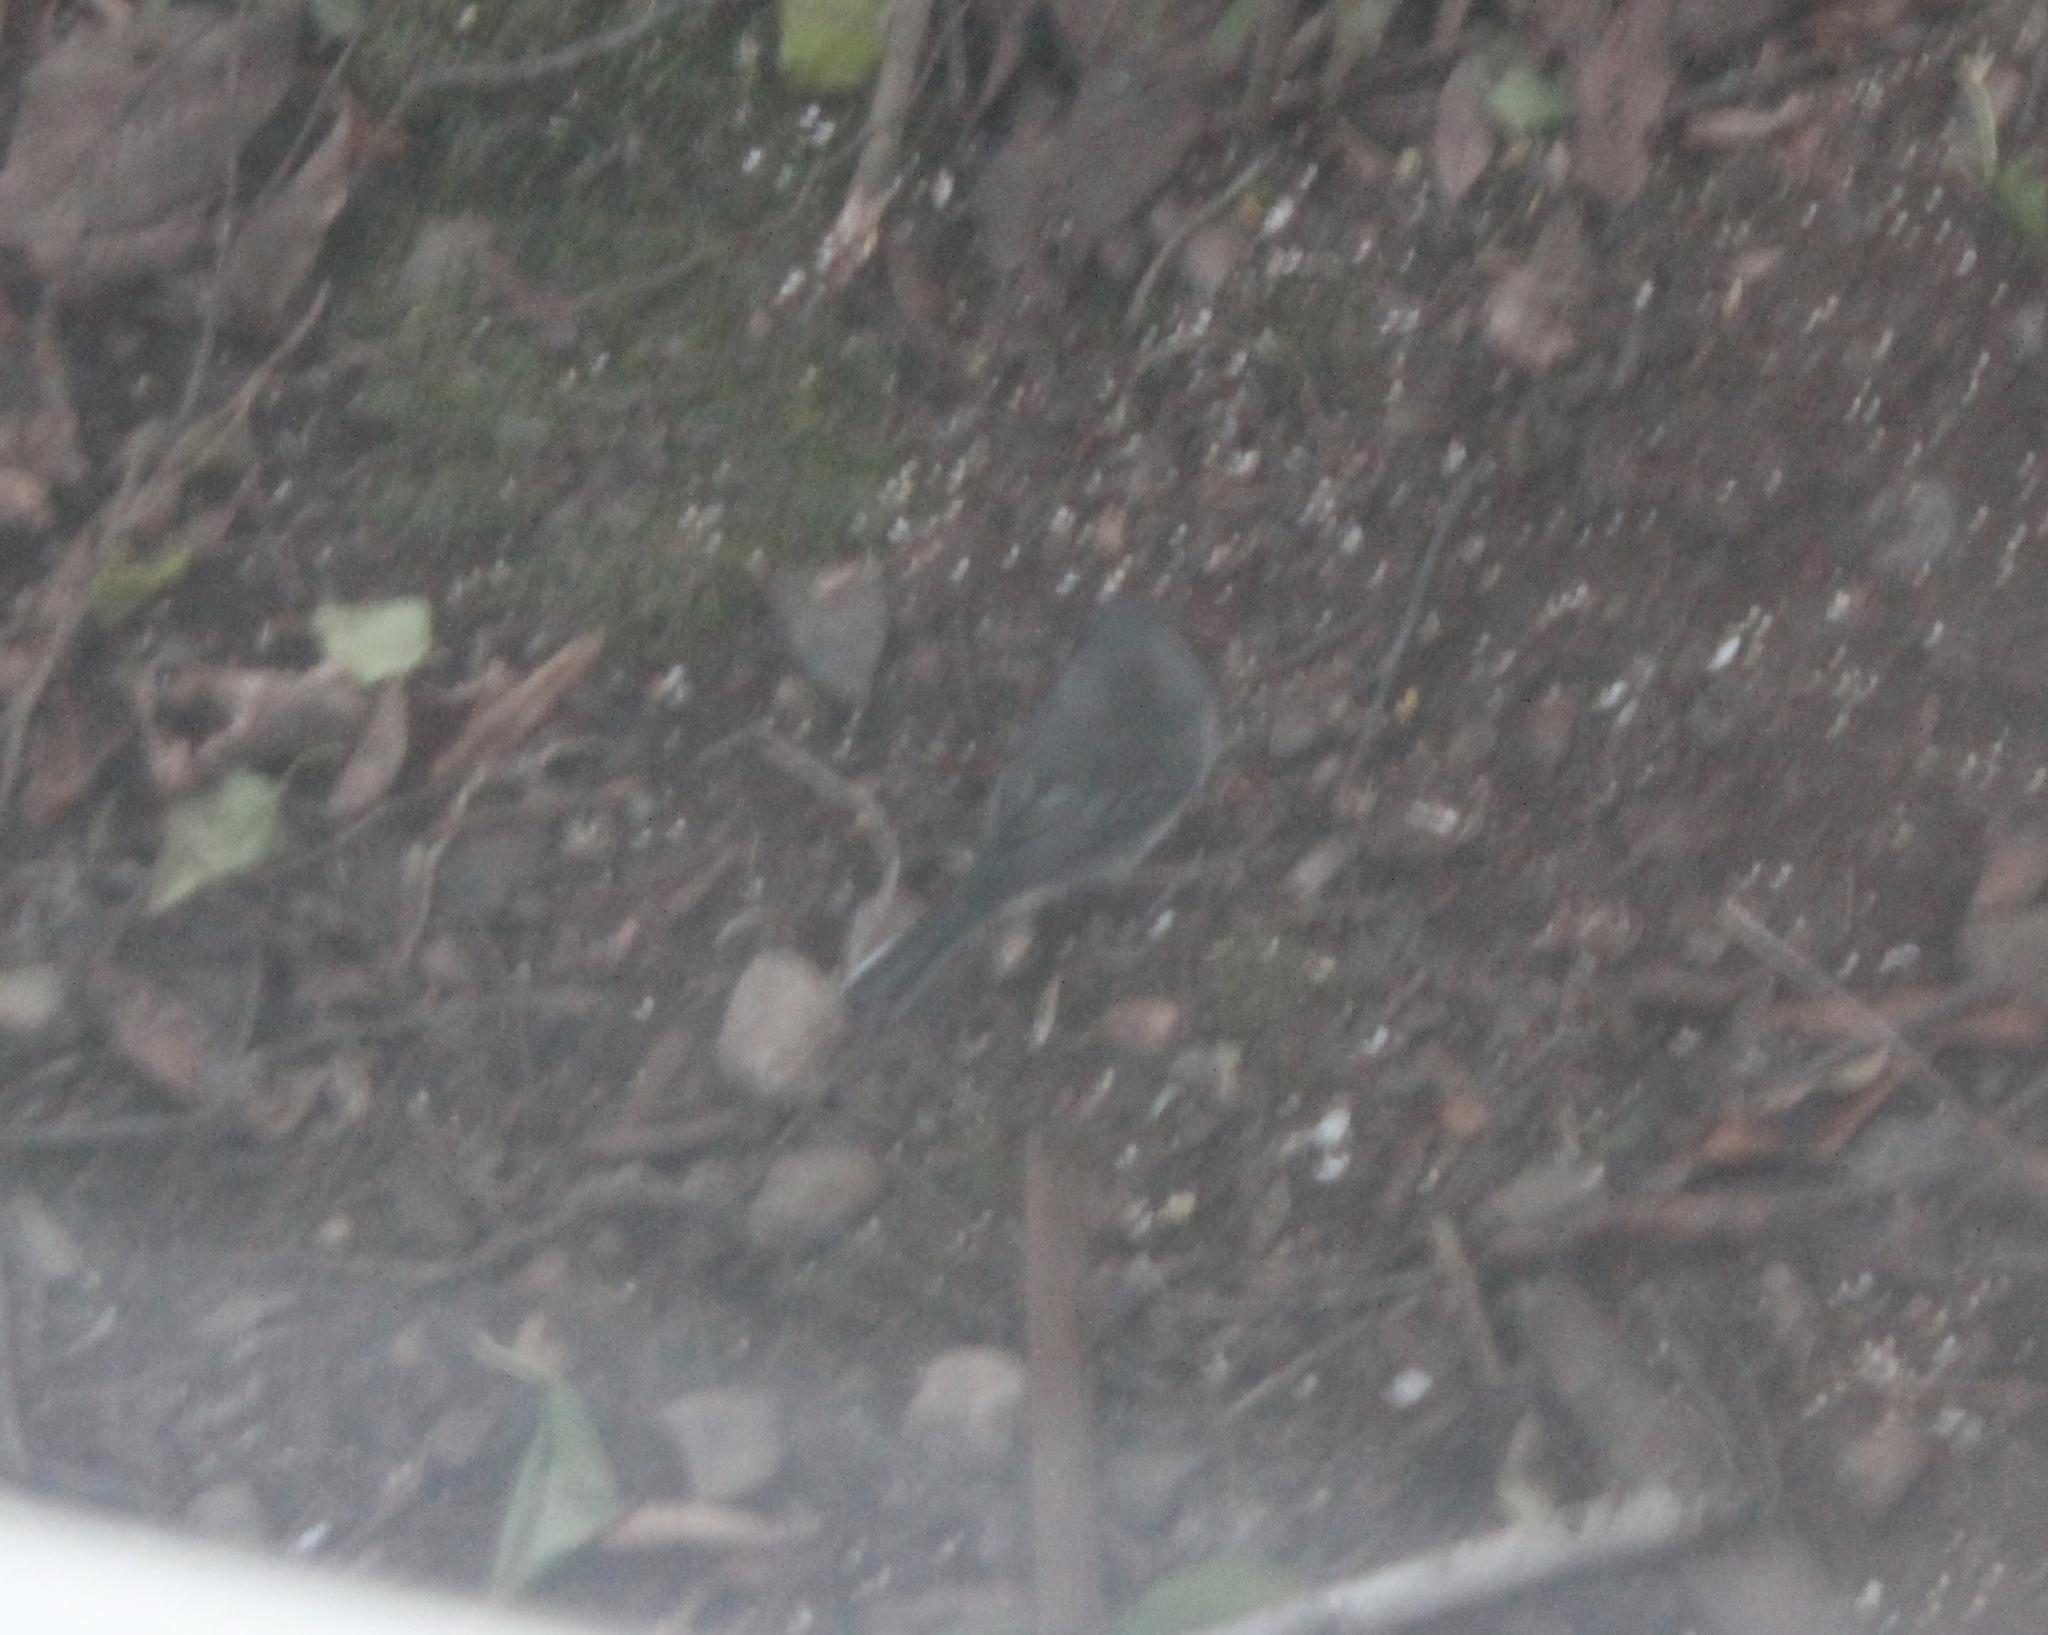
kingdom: Animalia
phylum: Chordata
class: Aves
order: Passeriformes
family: Passerellidae
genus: Junco
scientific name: Junco hyemalis
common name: Dark-eyed junco
